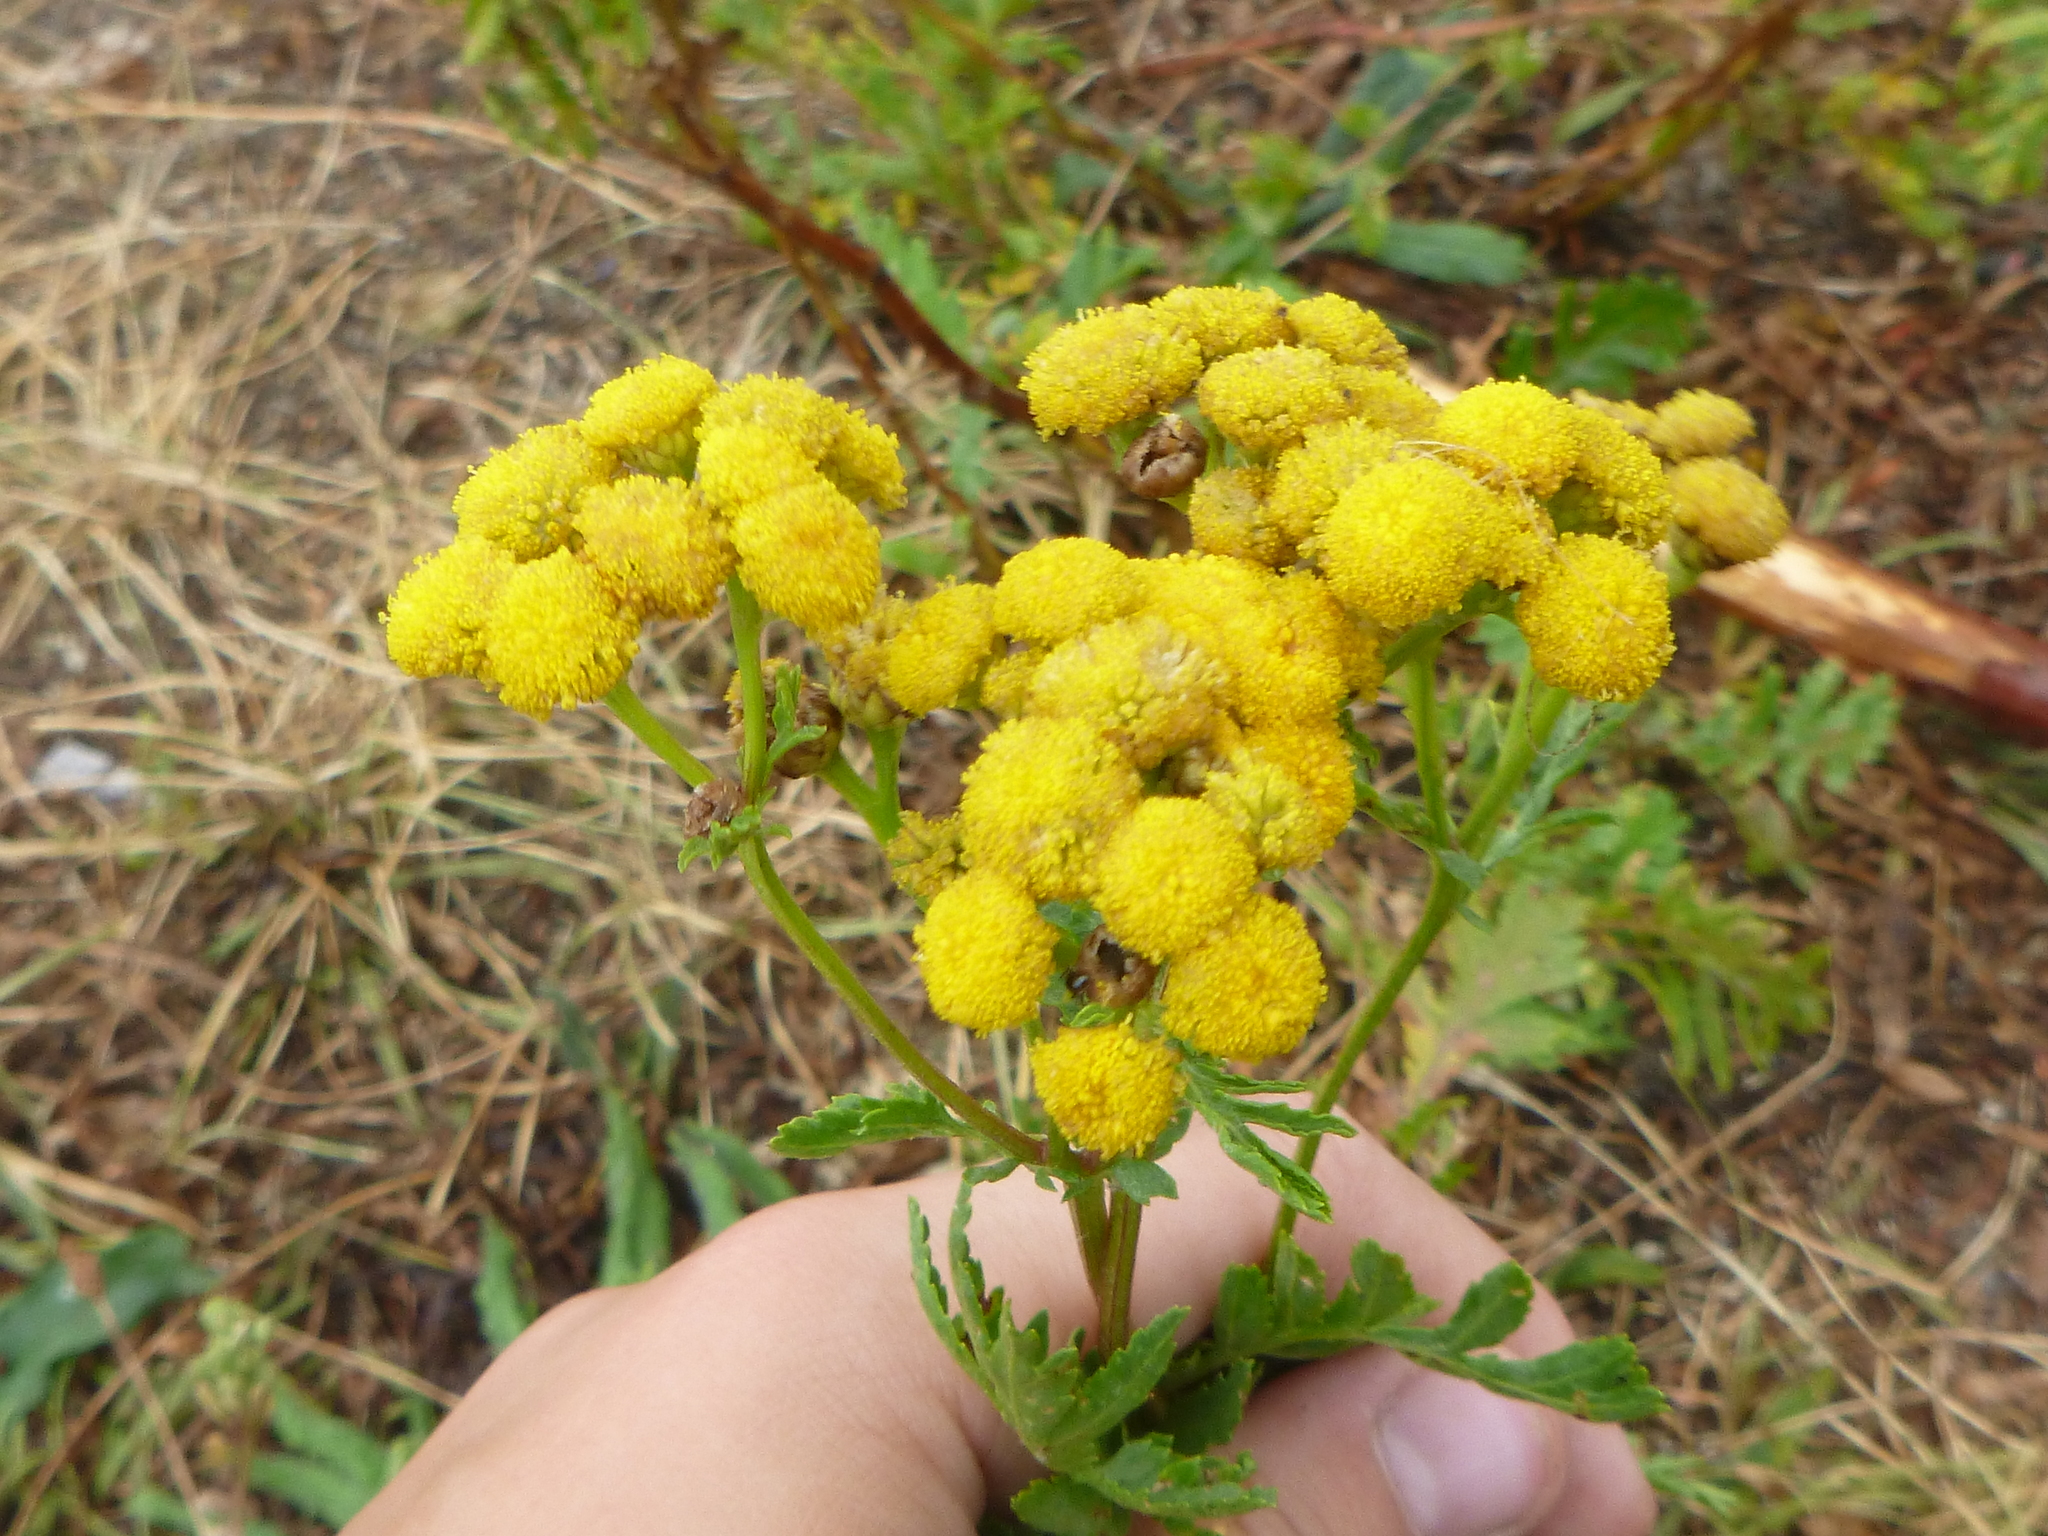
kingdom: Plantae
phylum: Tracheophyta
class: Magnoliopsida
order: Asterales
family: Asteraceae
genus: Tanacetum
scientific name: Tanacetum vulgare
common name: Common tansy
